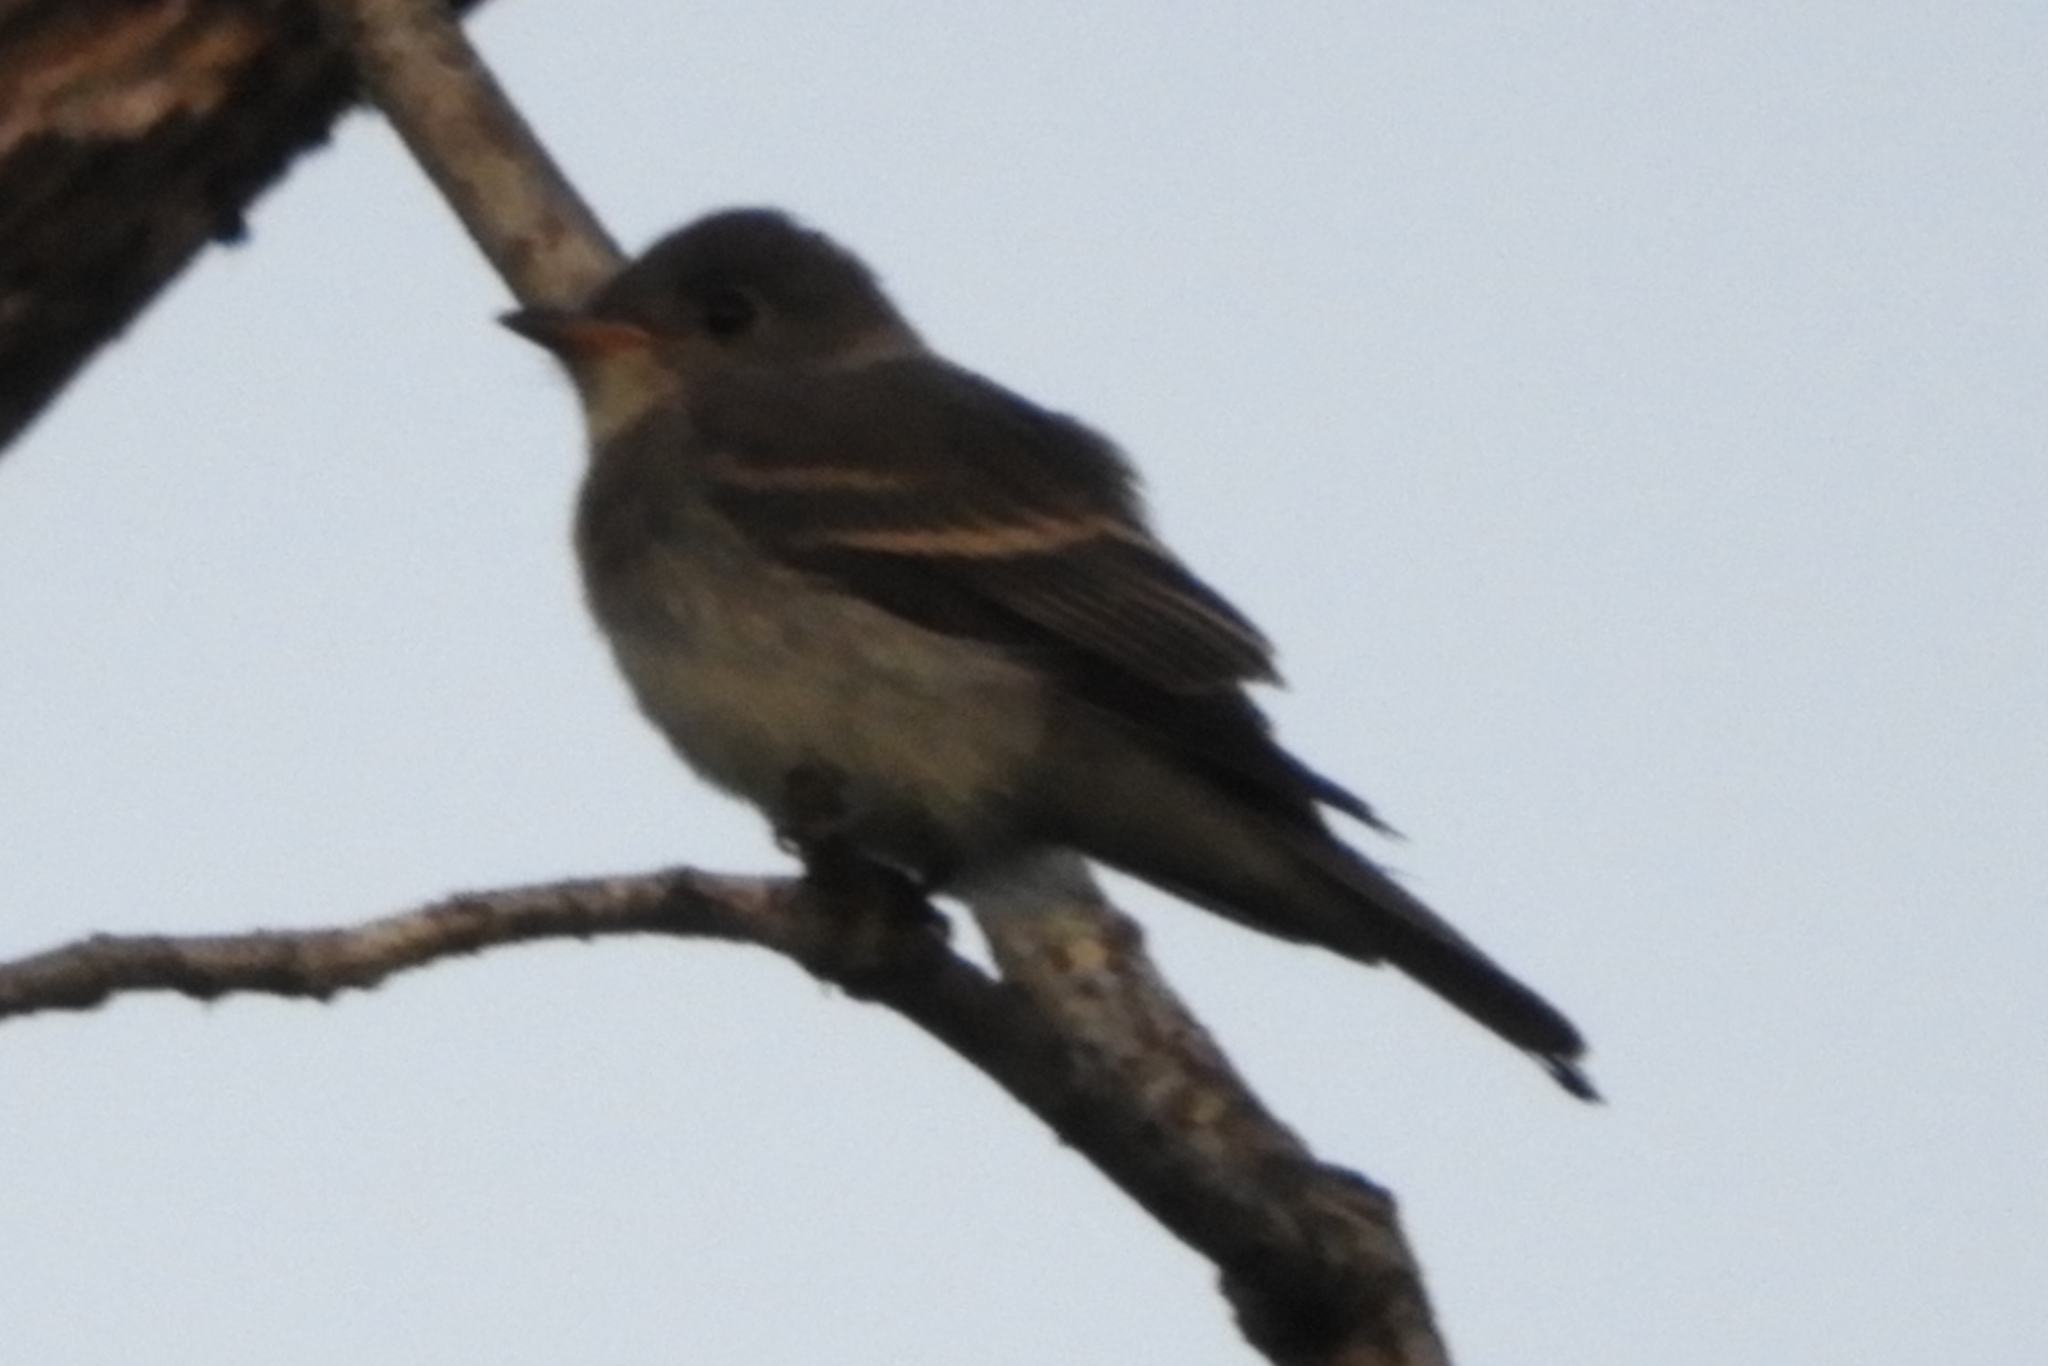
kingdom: Animalia
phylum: Chordata
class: Aves
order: Passeriformes
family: Tyrannidae
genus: Contopus
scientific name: Contopus virens
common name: Eastern wood-pewee
